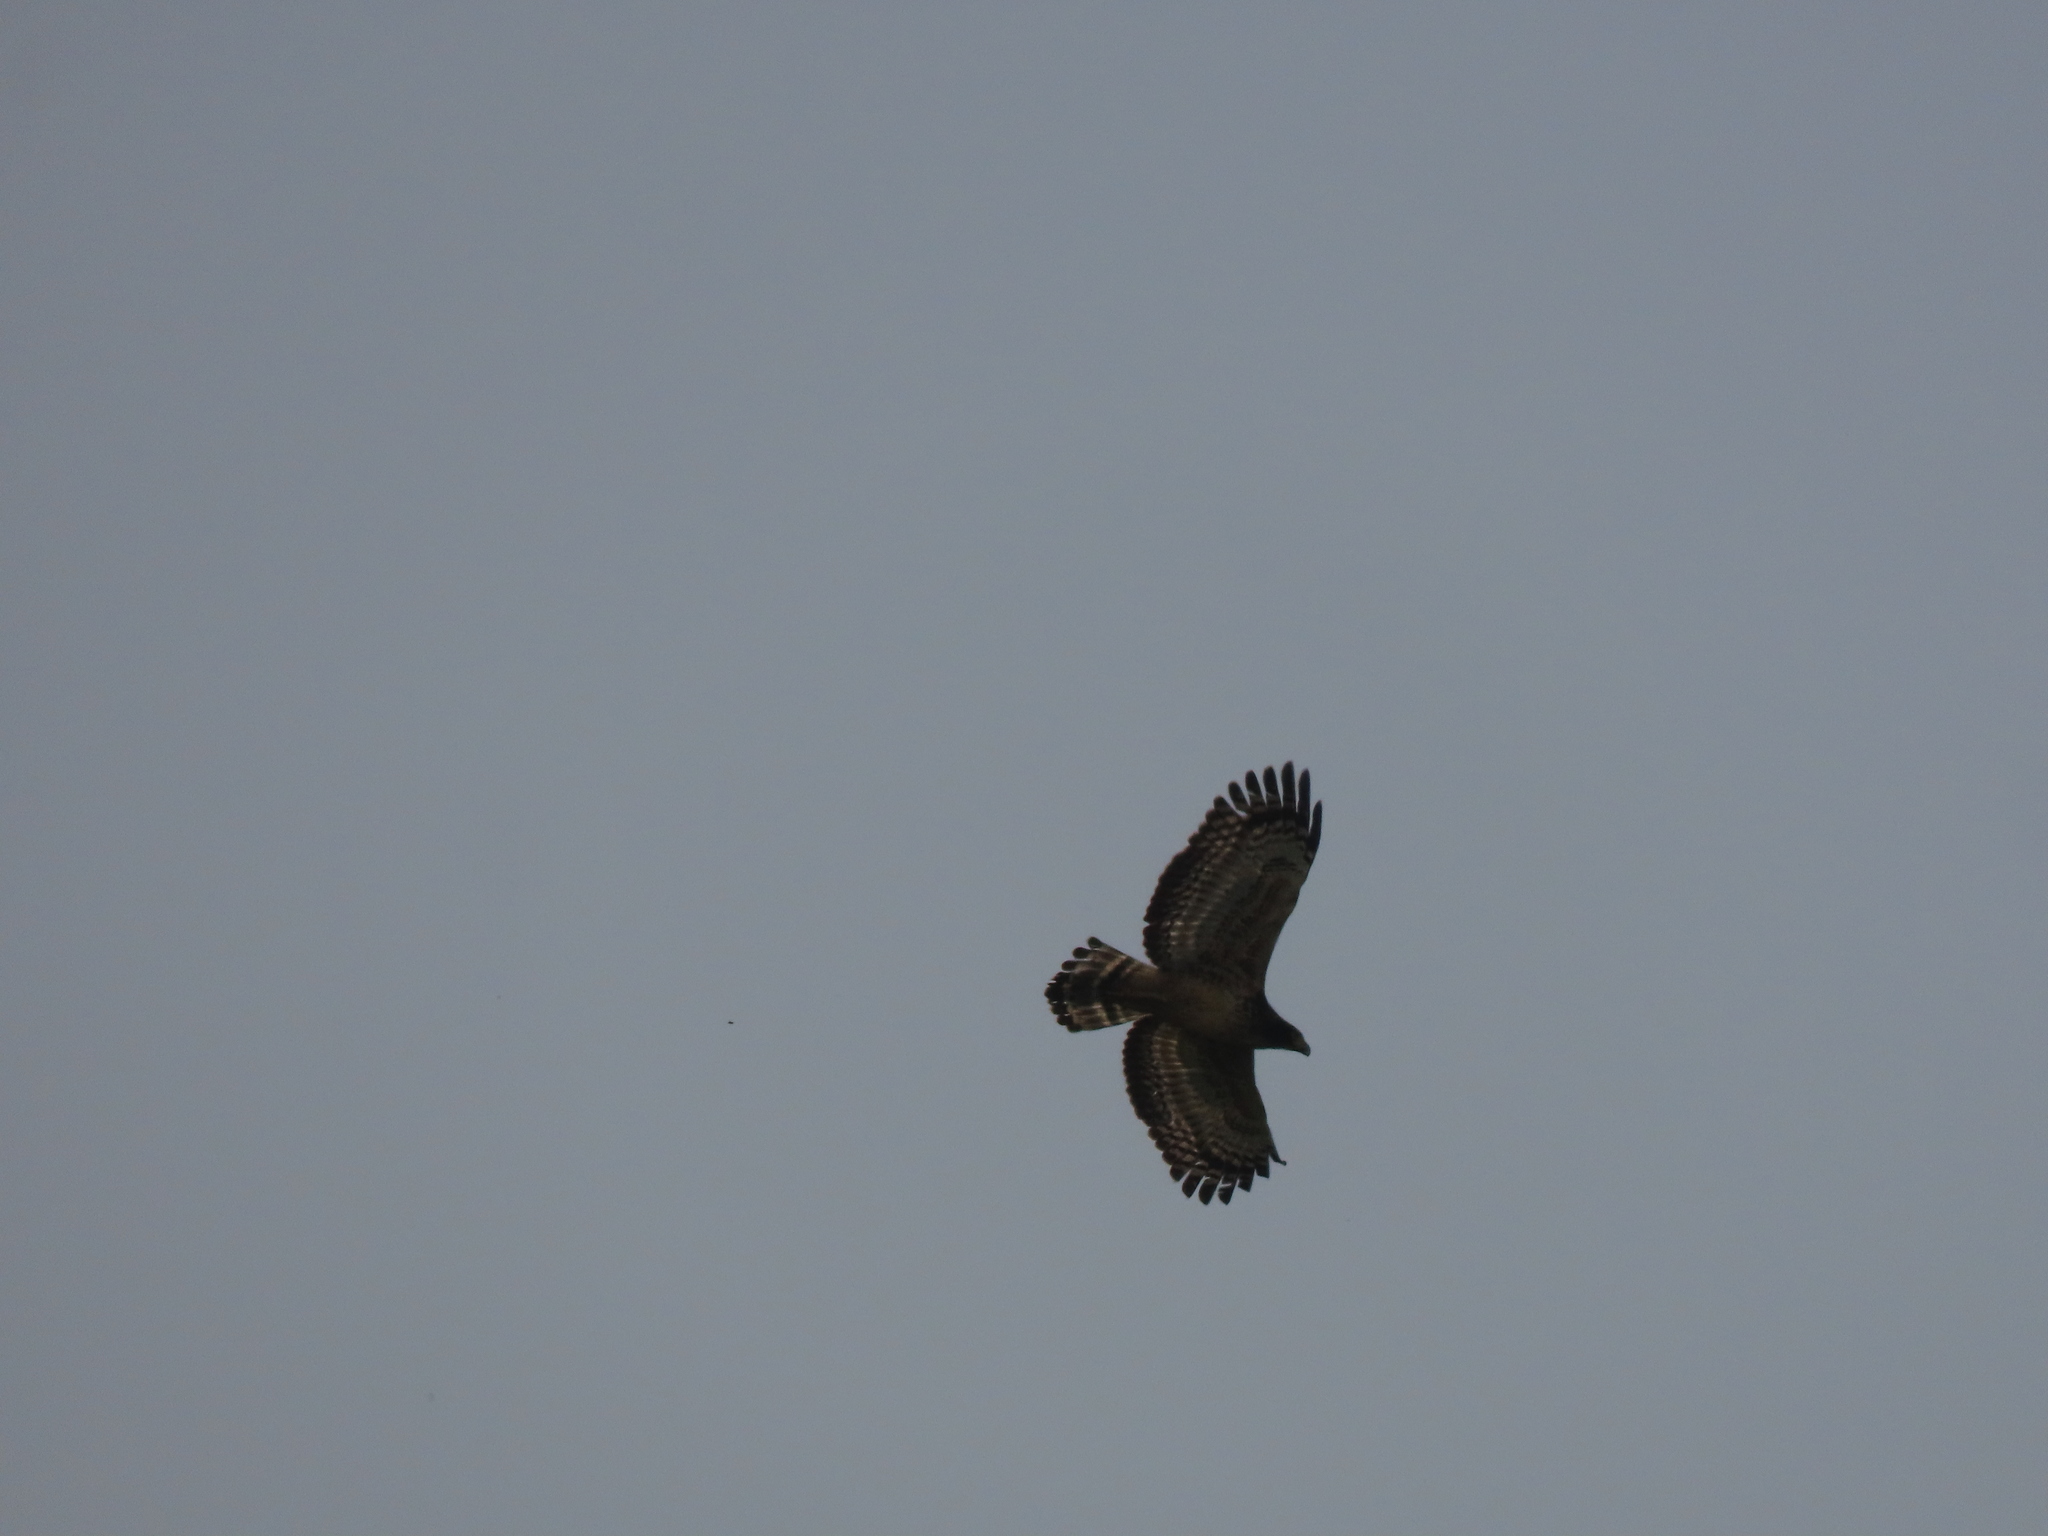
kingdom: Animalia
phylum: Chordata
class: Aves
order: Accipitriformes
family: Accipitridae
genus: Spilornis
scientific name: Spilornis cheela
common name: Crested serpent eagle
